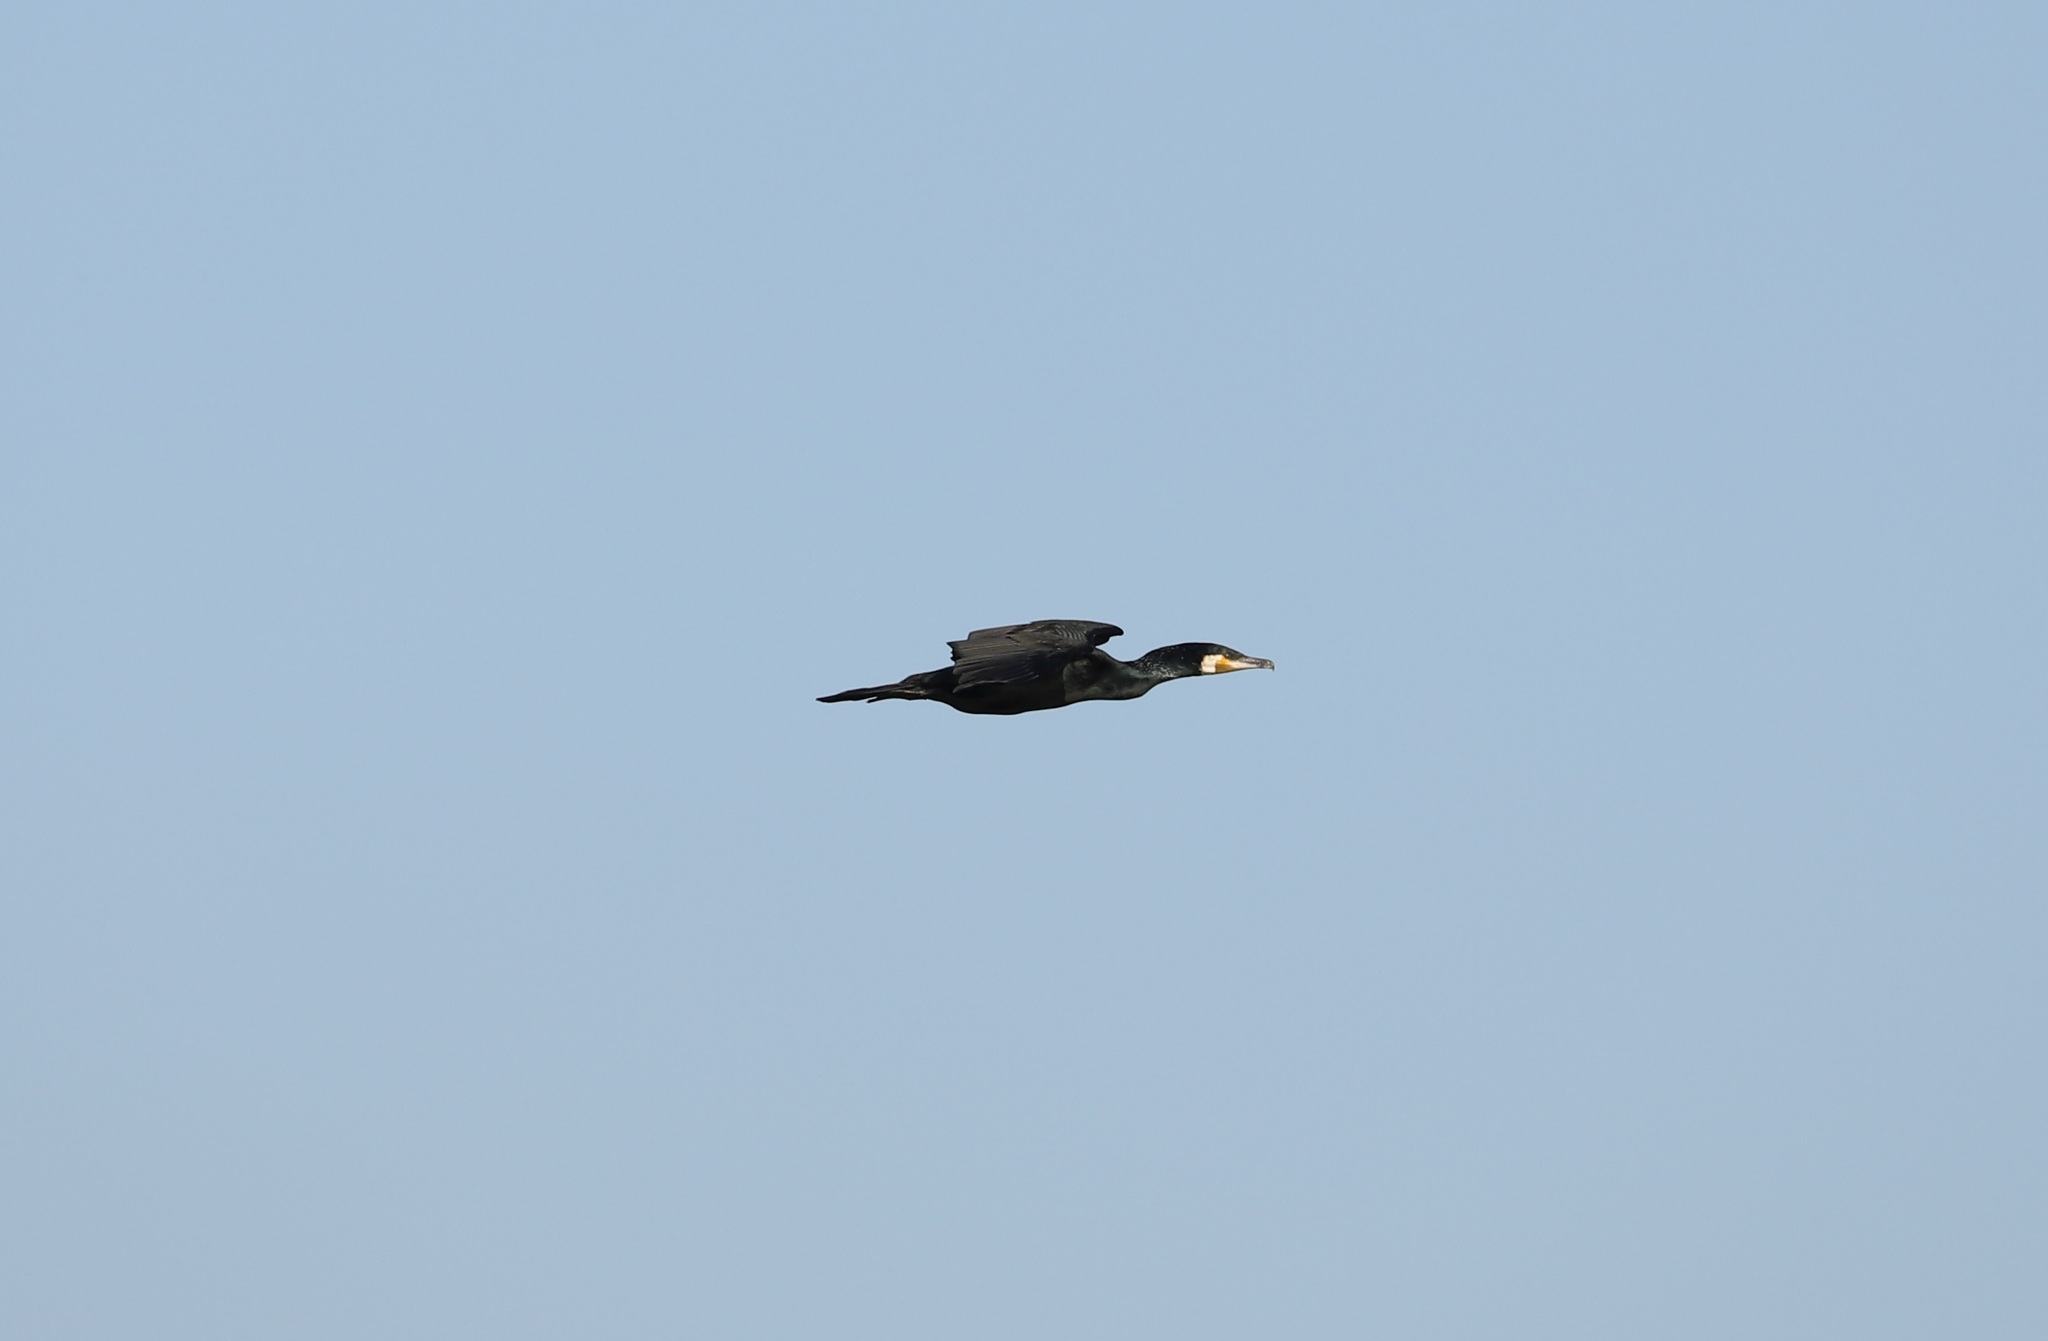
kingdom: Animalia
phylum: Chordata
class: Aves
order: Suliformes
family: Phalacrocoracidae
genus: Phalacrocorax
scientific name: Phalacrocorax carbo
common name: Great cormorant
